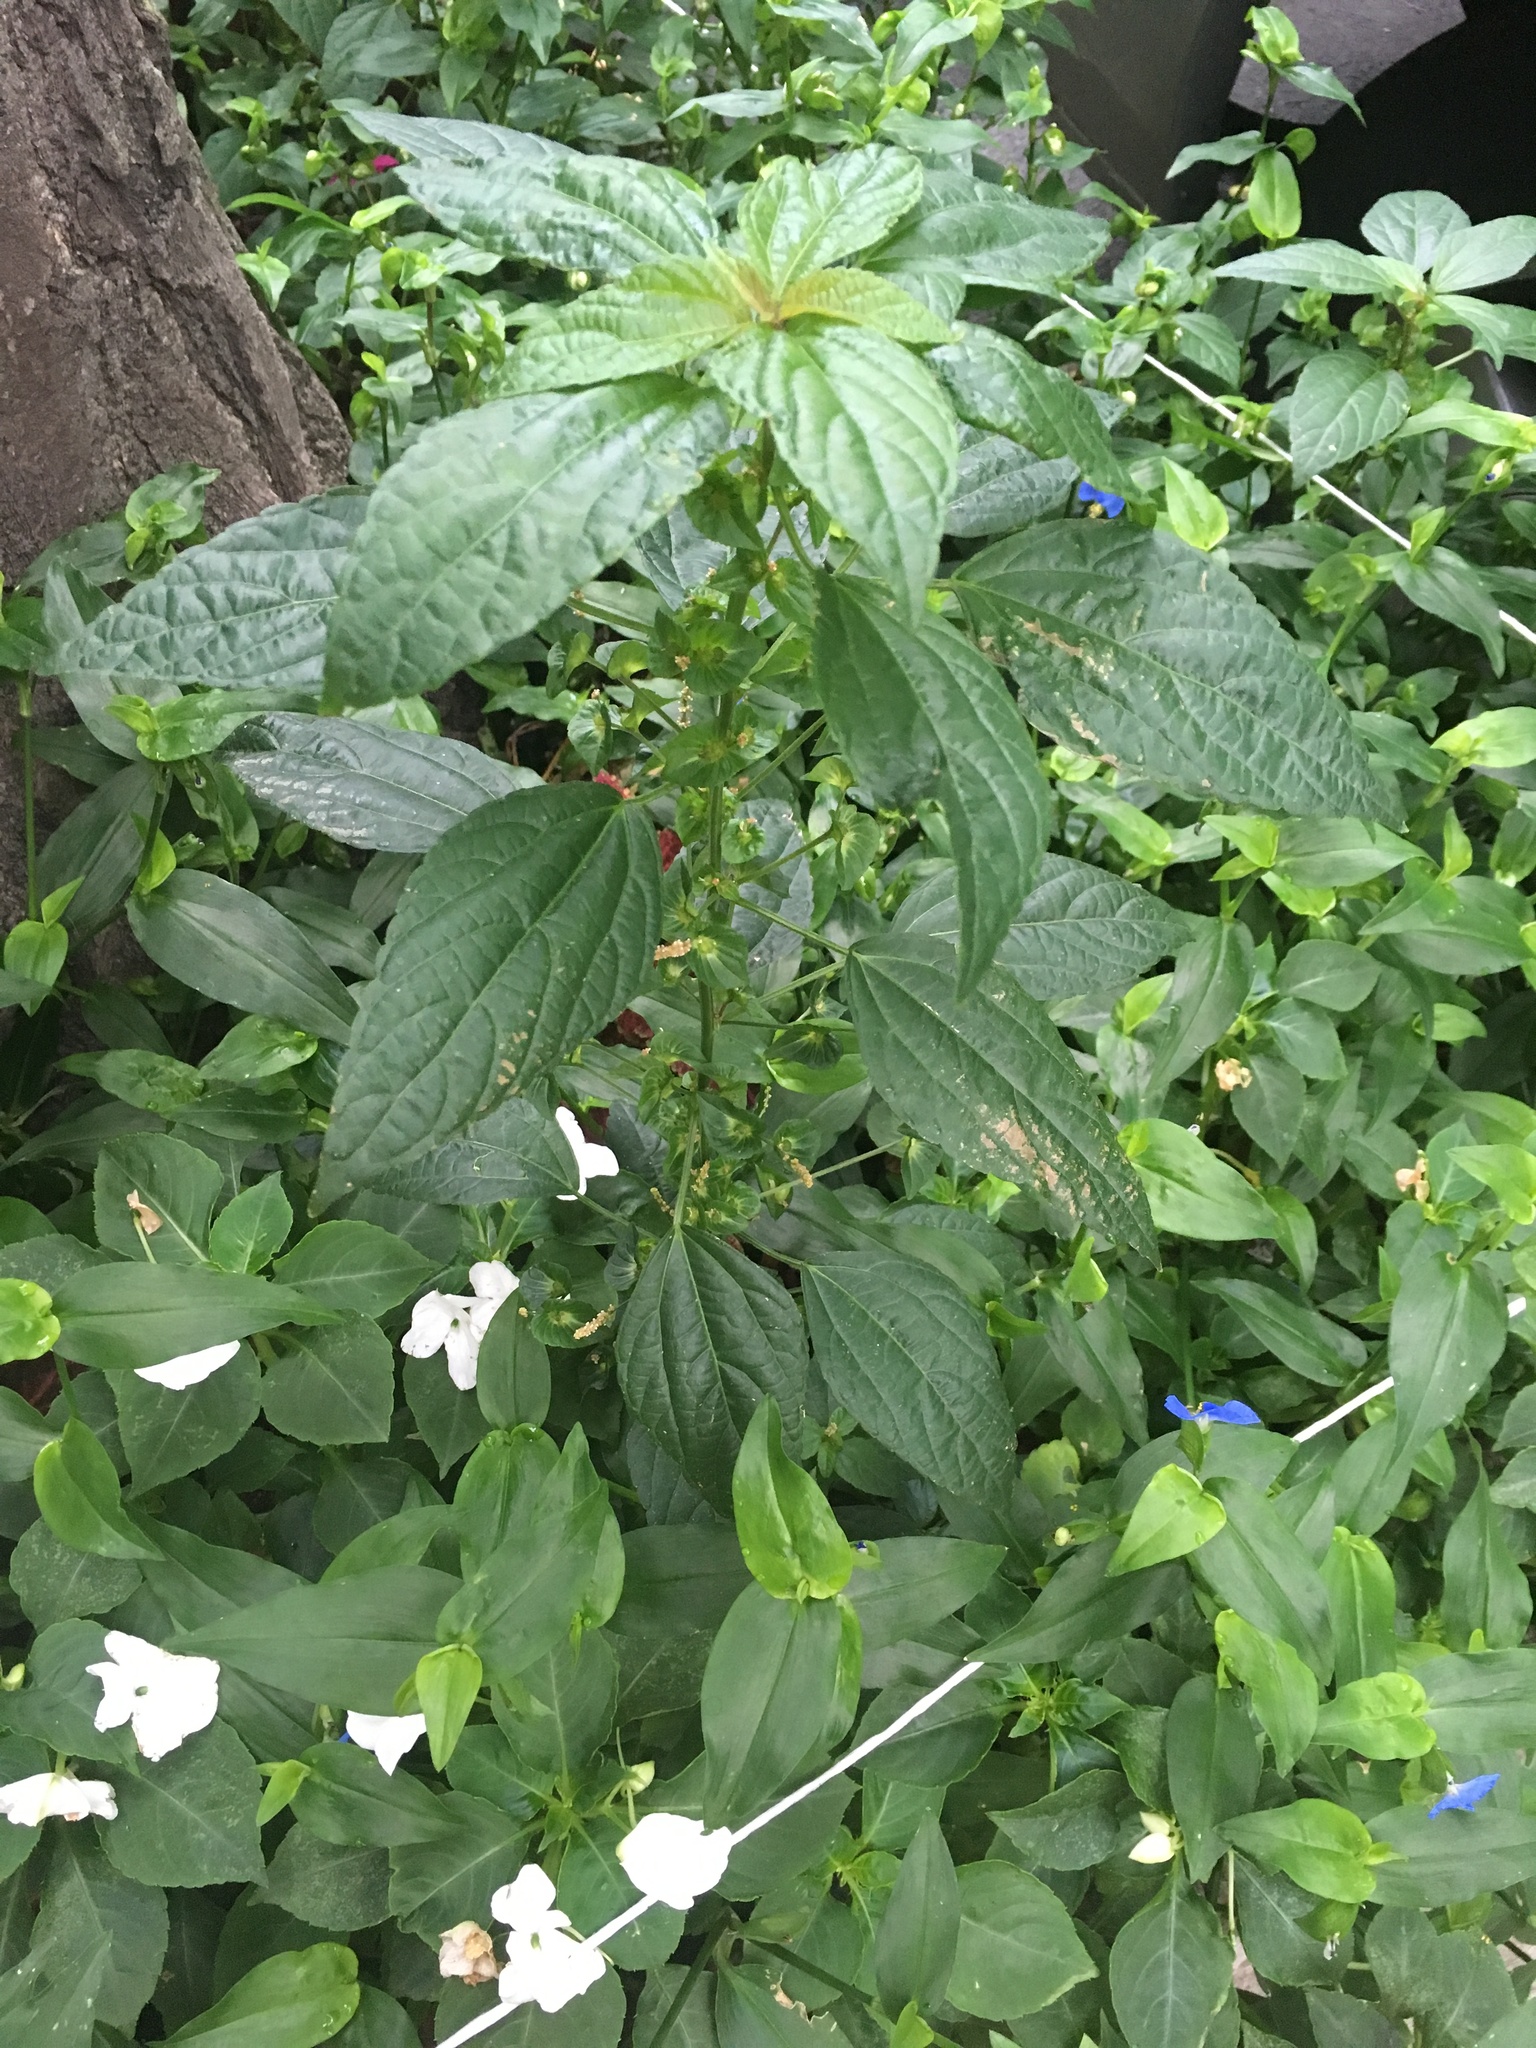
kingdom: Plantae
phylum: Tracheophyta
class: Magnoliopsida
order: Malpighiales
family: Euphorbiaceae
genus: Acalypha
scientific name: Acalypha australis
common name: Asian copperleaf
